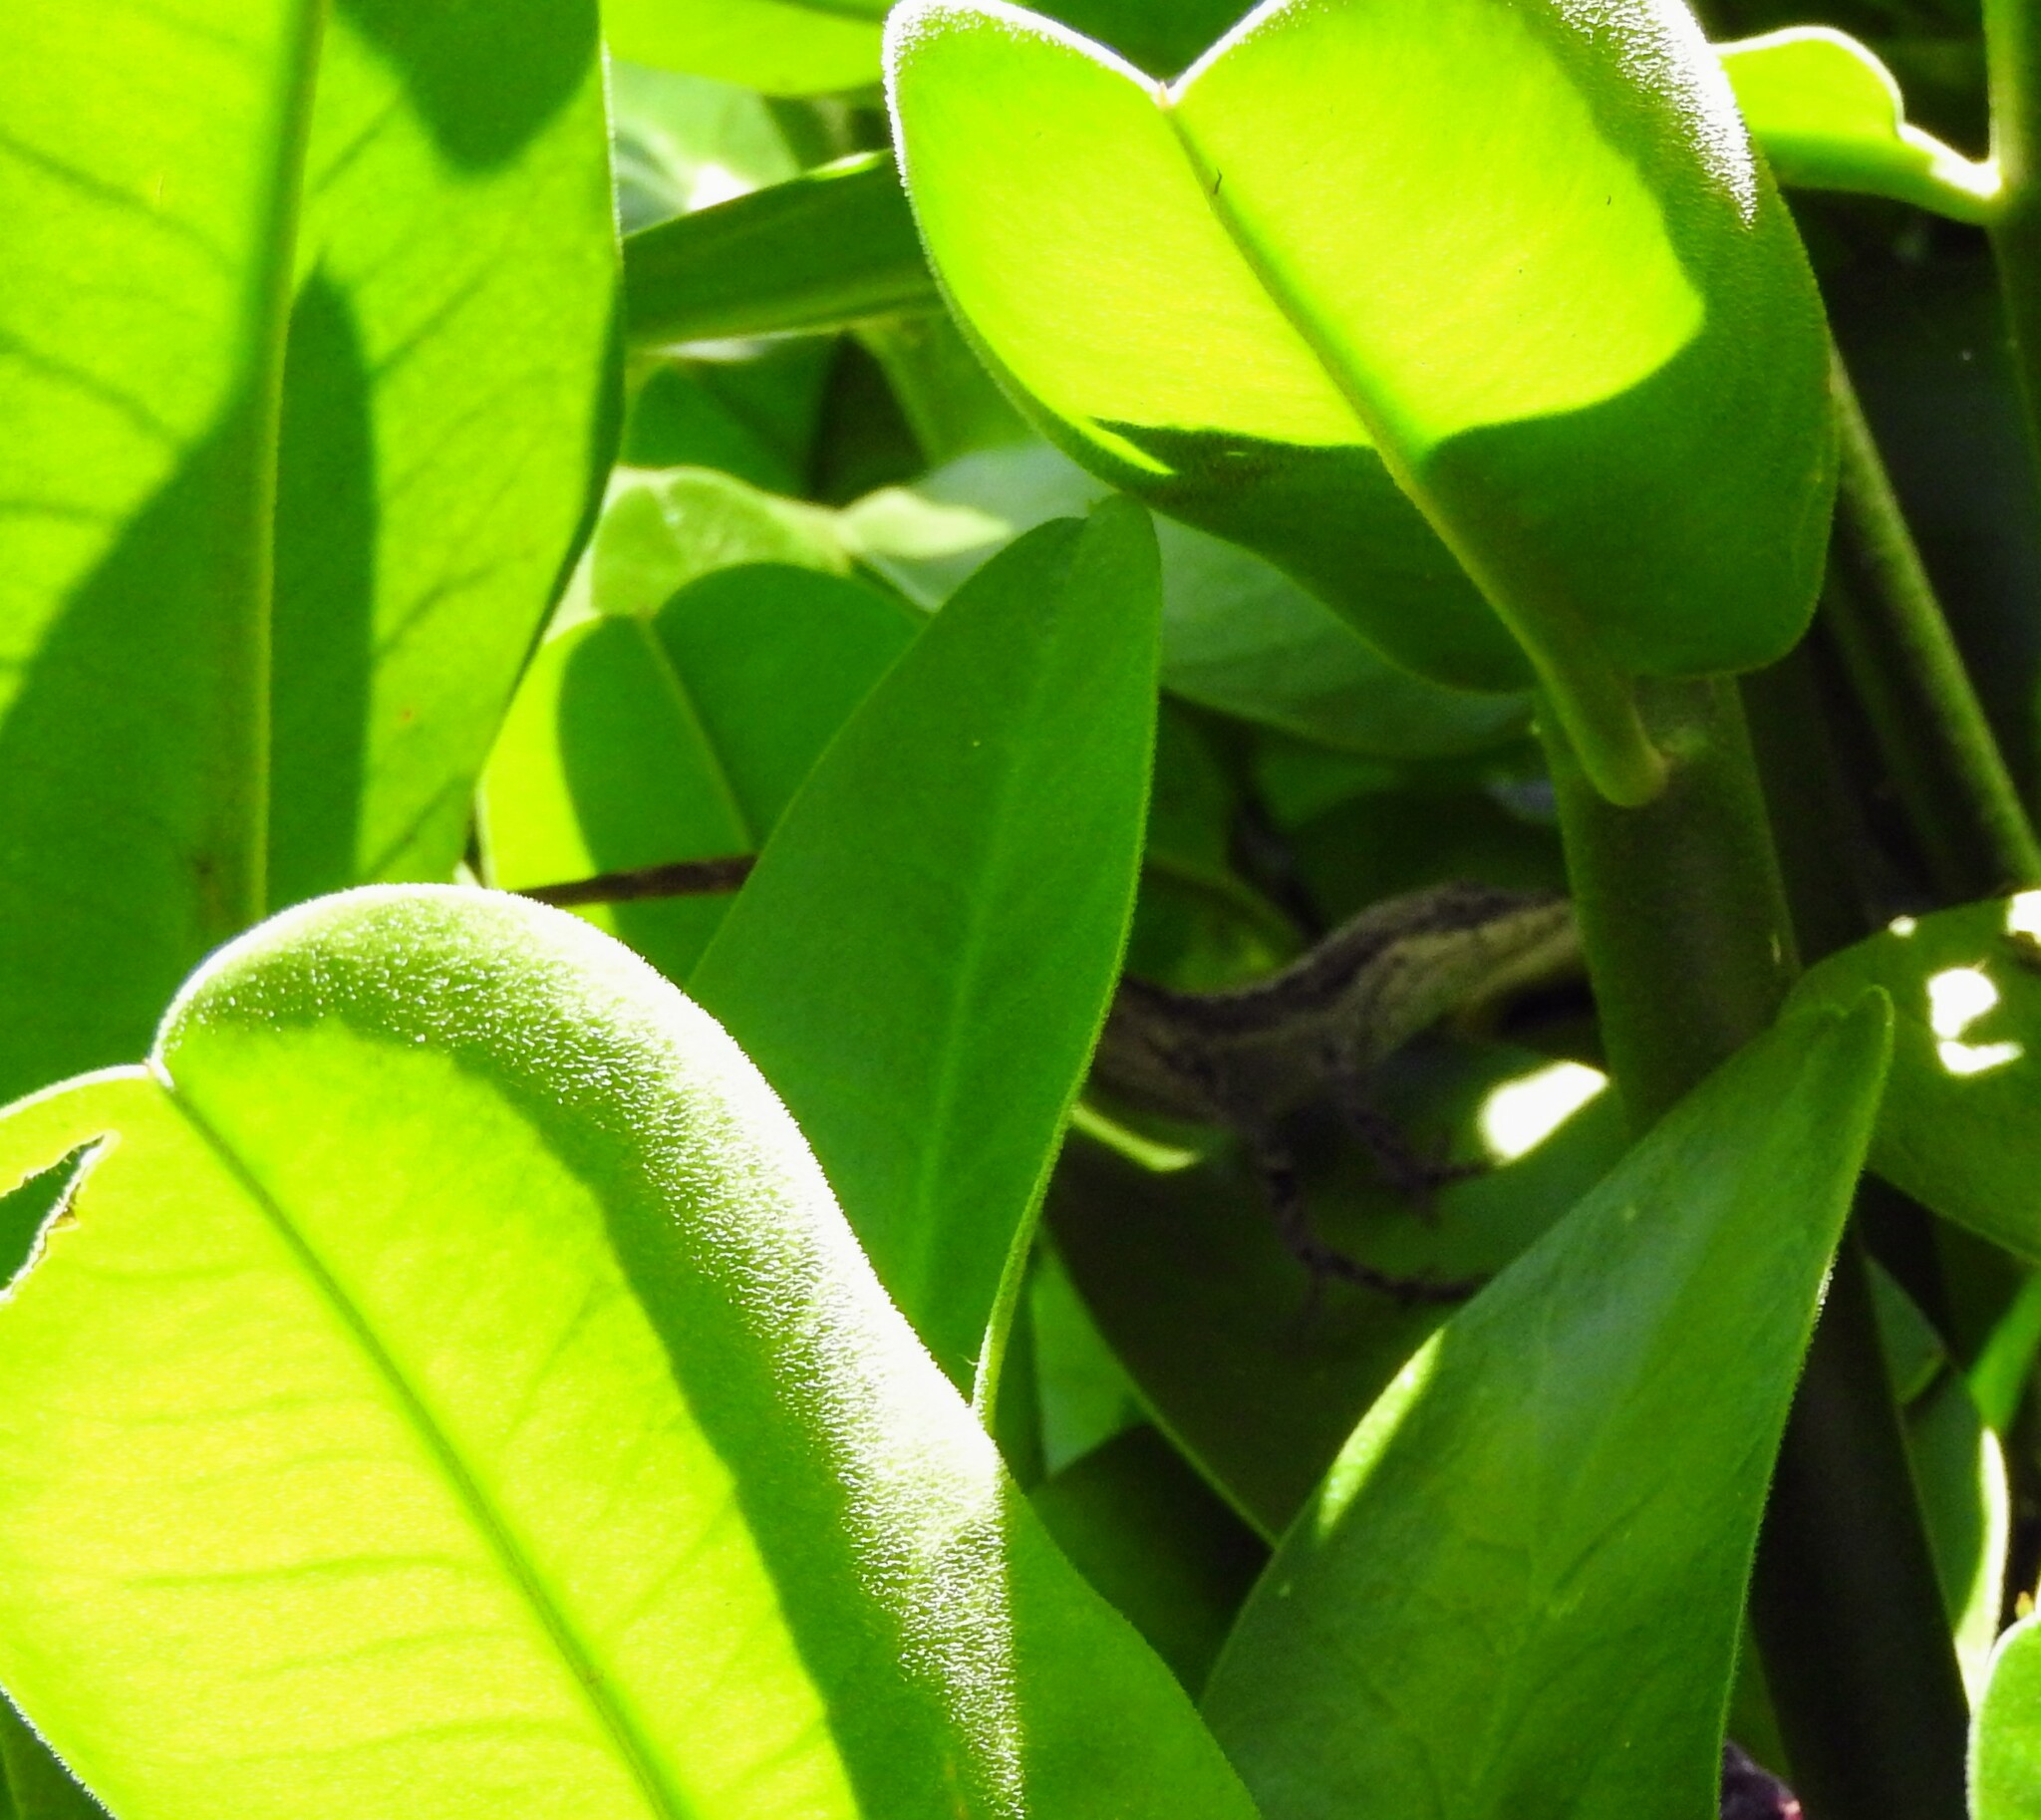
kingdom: Animalia
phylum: Chordata
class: Squamata
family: Dactyloidae
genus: Anolis
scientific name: Anolis nebulosus
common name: Clouded anole
